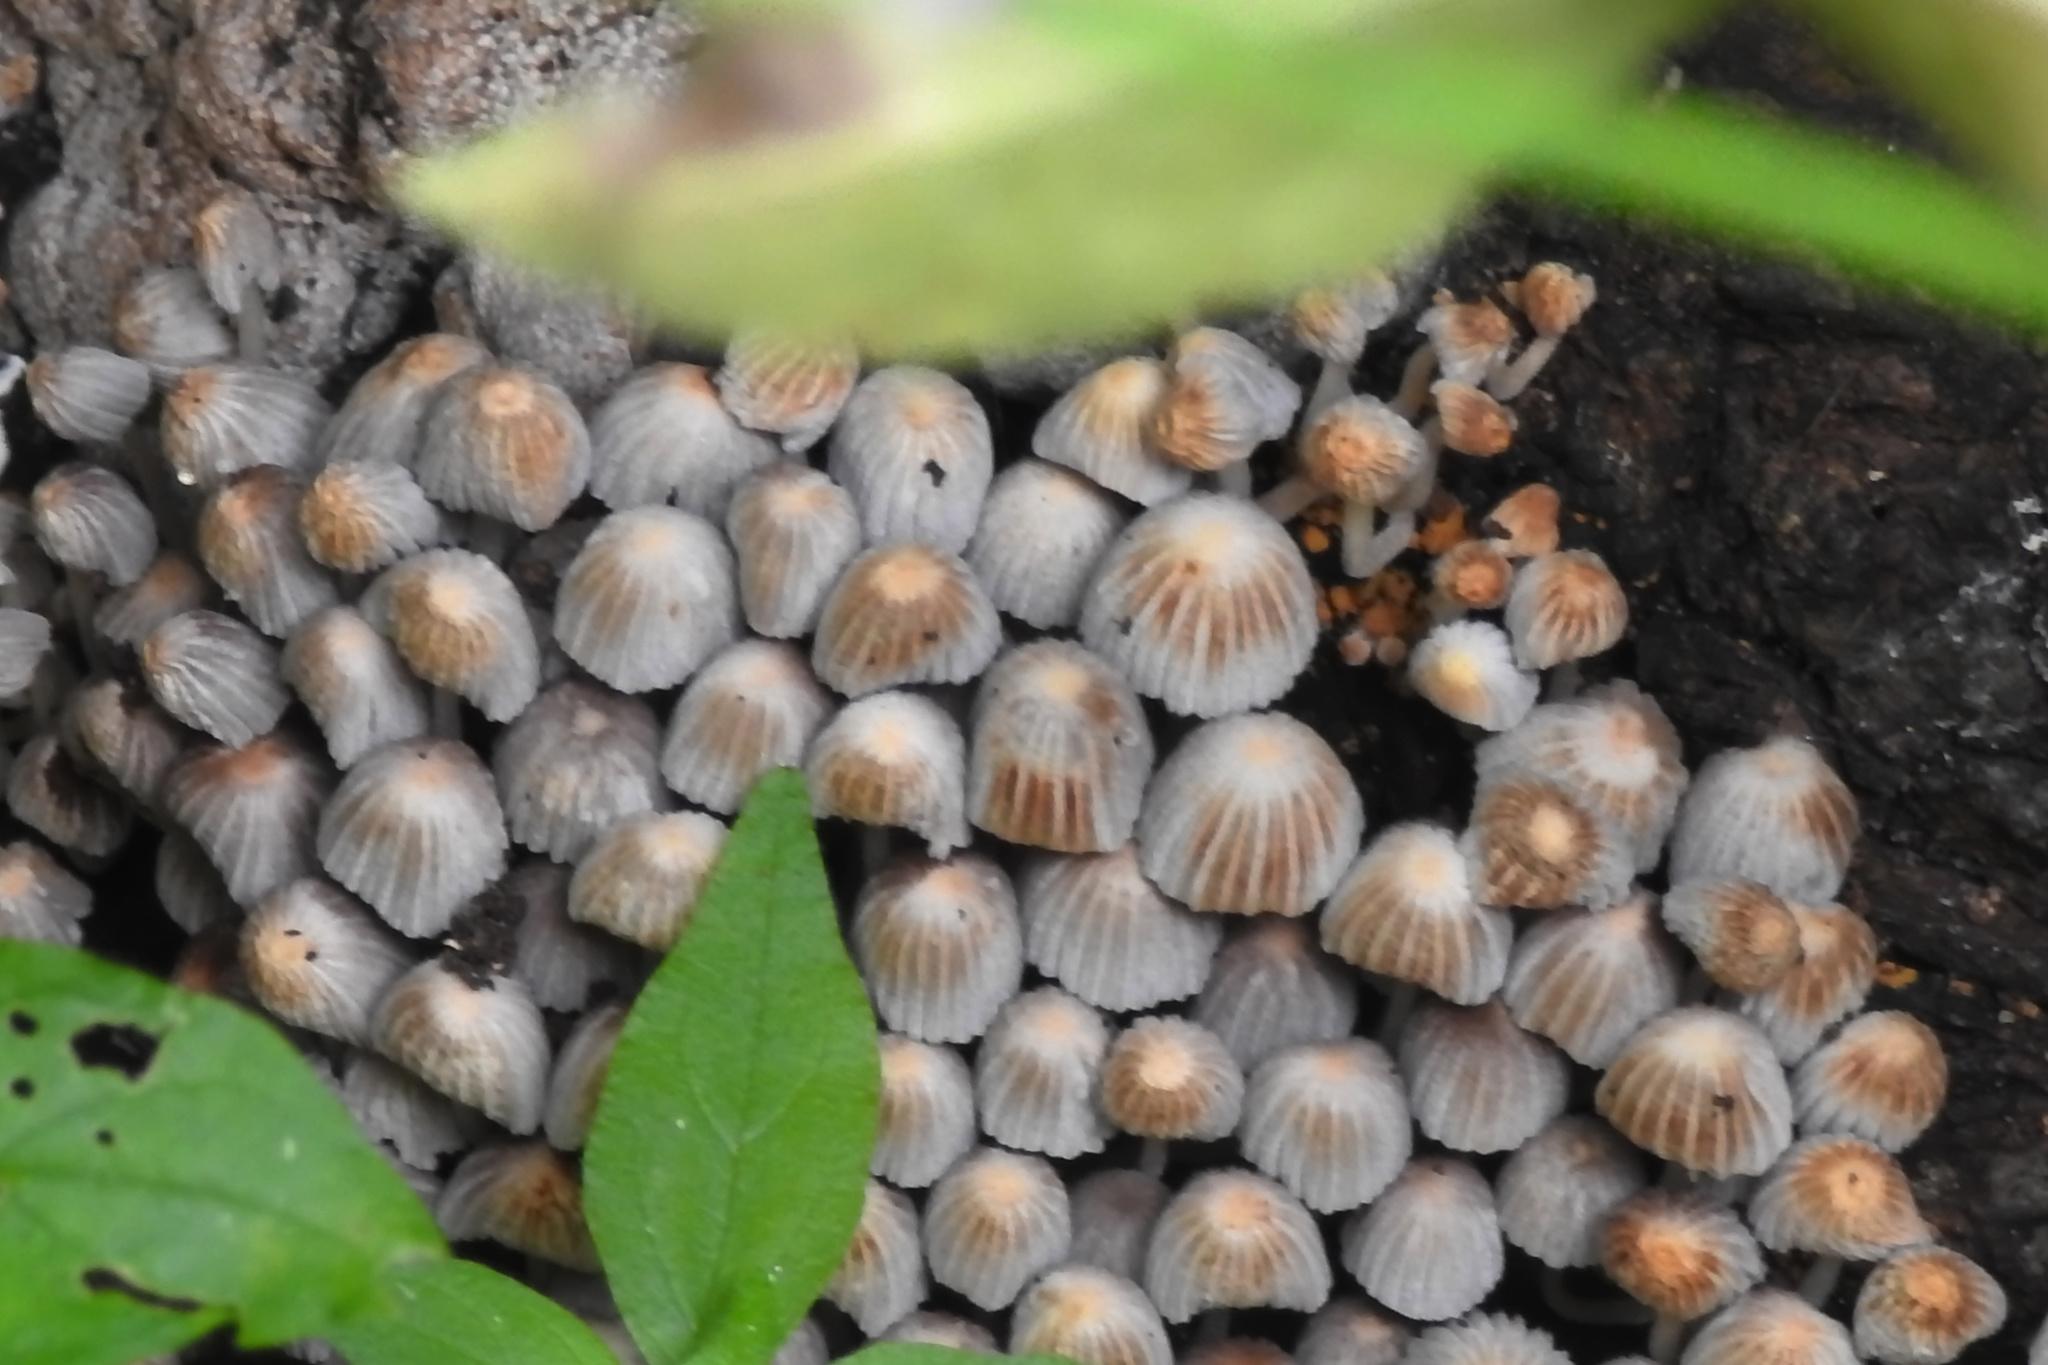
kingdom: Fungi
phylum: Basidiomycota
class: Agaricomycetes
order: Agaricales
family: Psathyrellaceae
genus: Coprinellus
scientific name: Coprinellus disseminatus
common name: Fairies' bonnets
